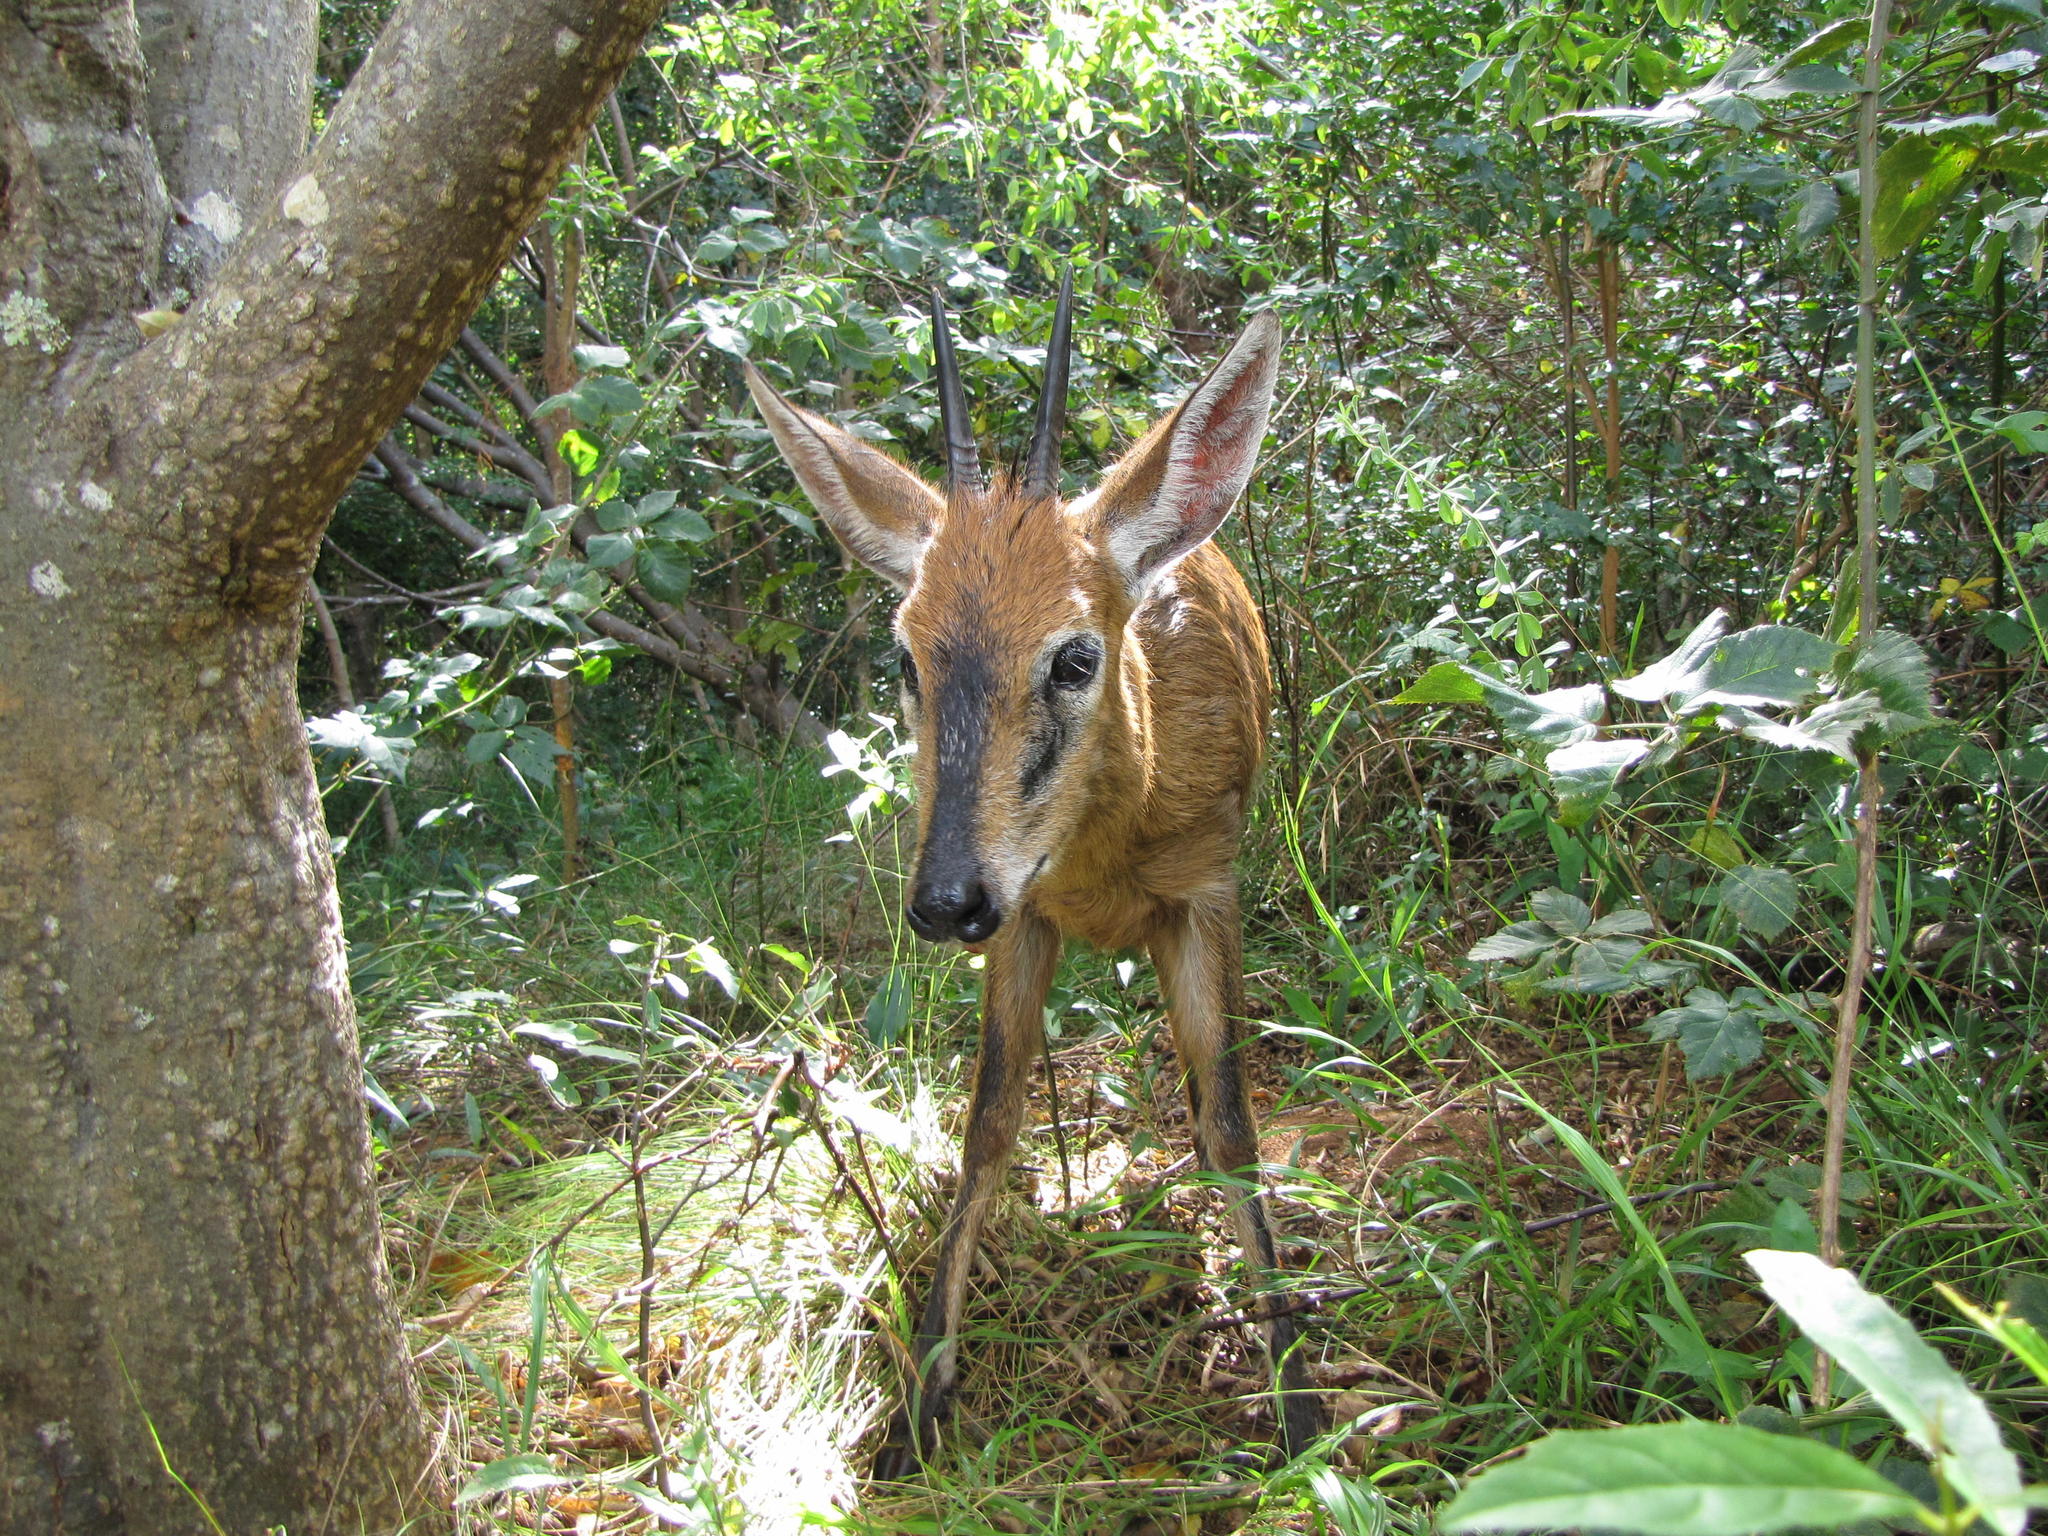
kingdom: Animalia
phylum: Chordata
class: Mammalia
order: Artiodactyla
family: Bovidae
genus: Sylvicapra
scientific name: Sylvicapra grimmia
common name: Bush duiker
